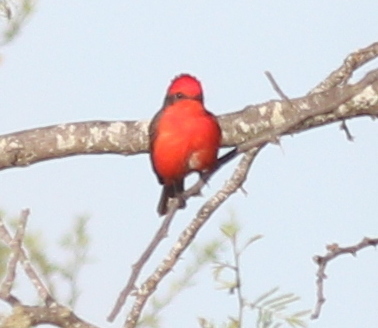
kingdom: Animalia
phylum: Chordata
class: Aves
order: Passeriformes
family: Tyrannidae
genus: Pyrocephalus
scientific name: Pyrocephalus rubinus
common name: Vermilion flycatcher
